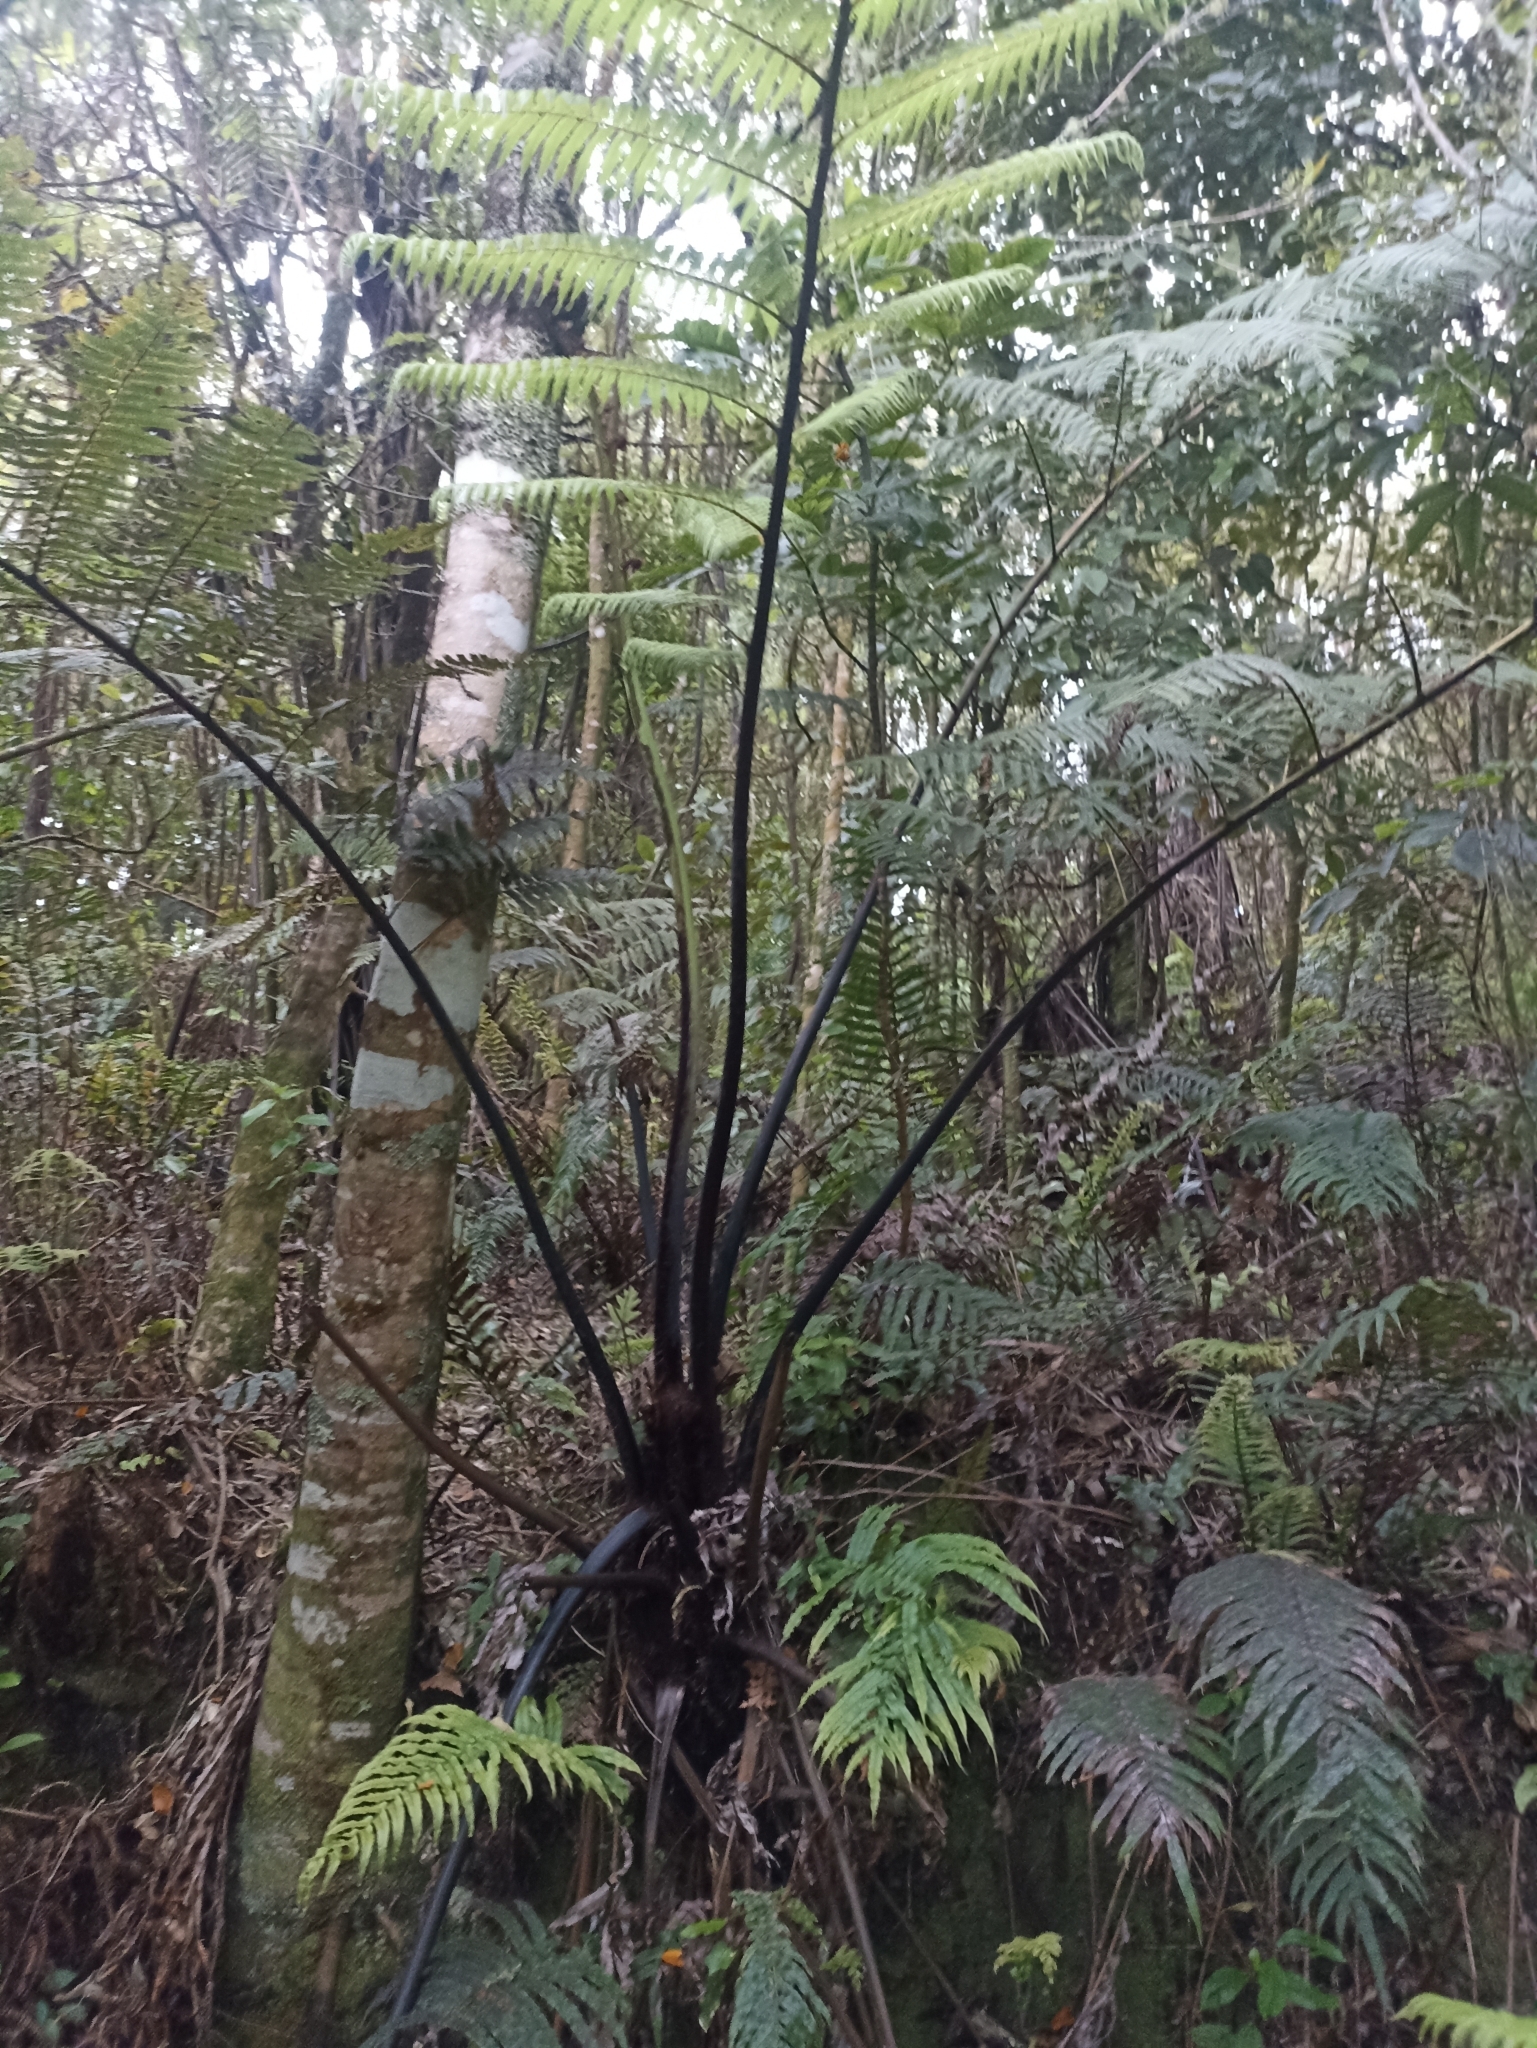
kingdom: Plantae
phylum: Tracheophyta
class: Polypodiopsida
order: Cyatheales
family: Cyatheaceae
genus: Sphaeropteris
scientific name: Sphaeropteris medullaris
